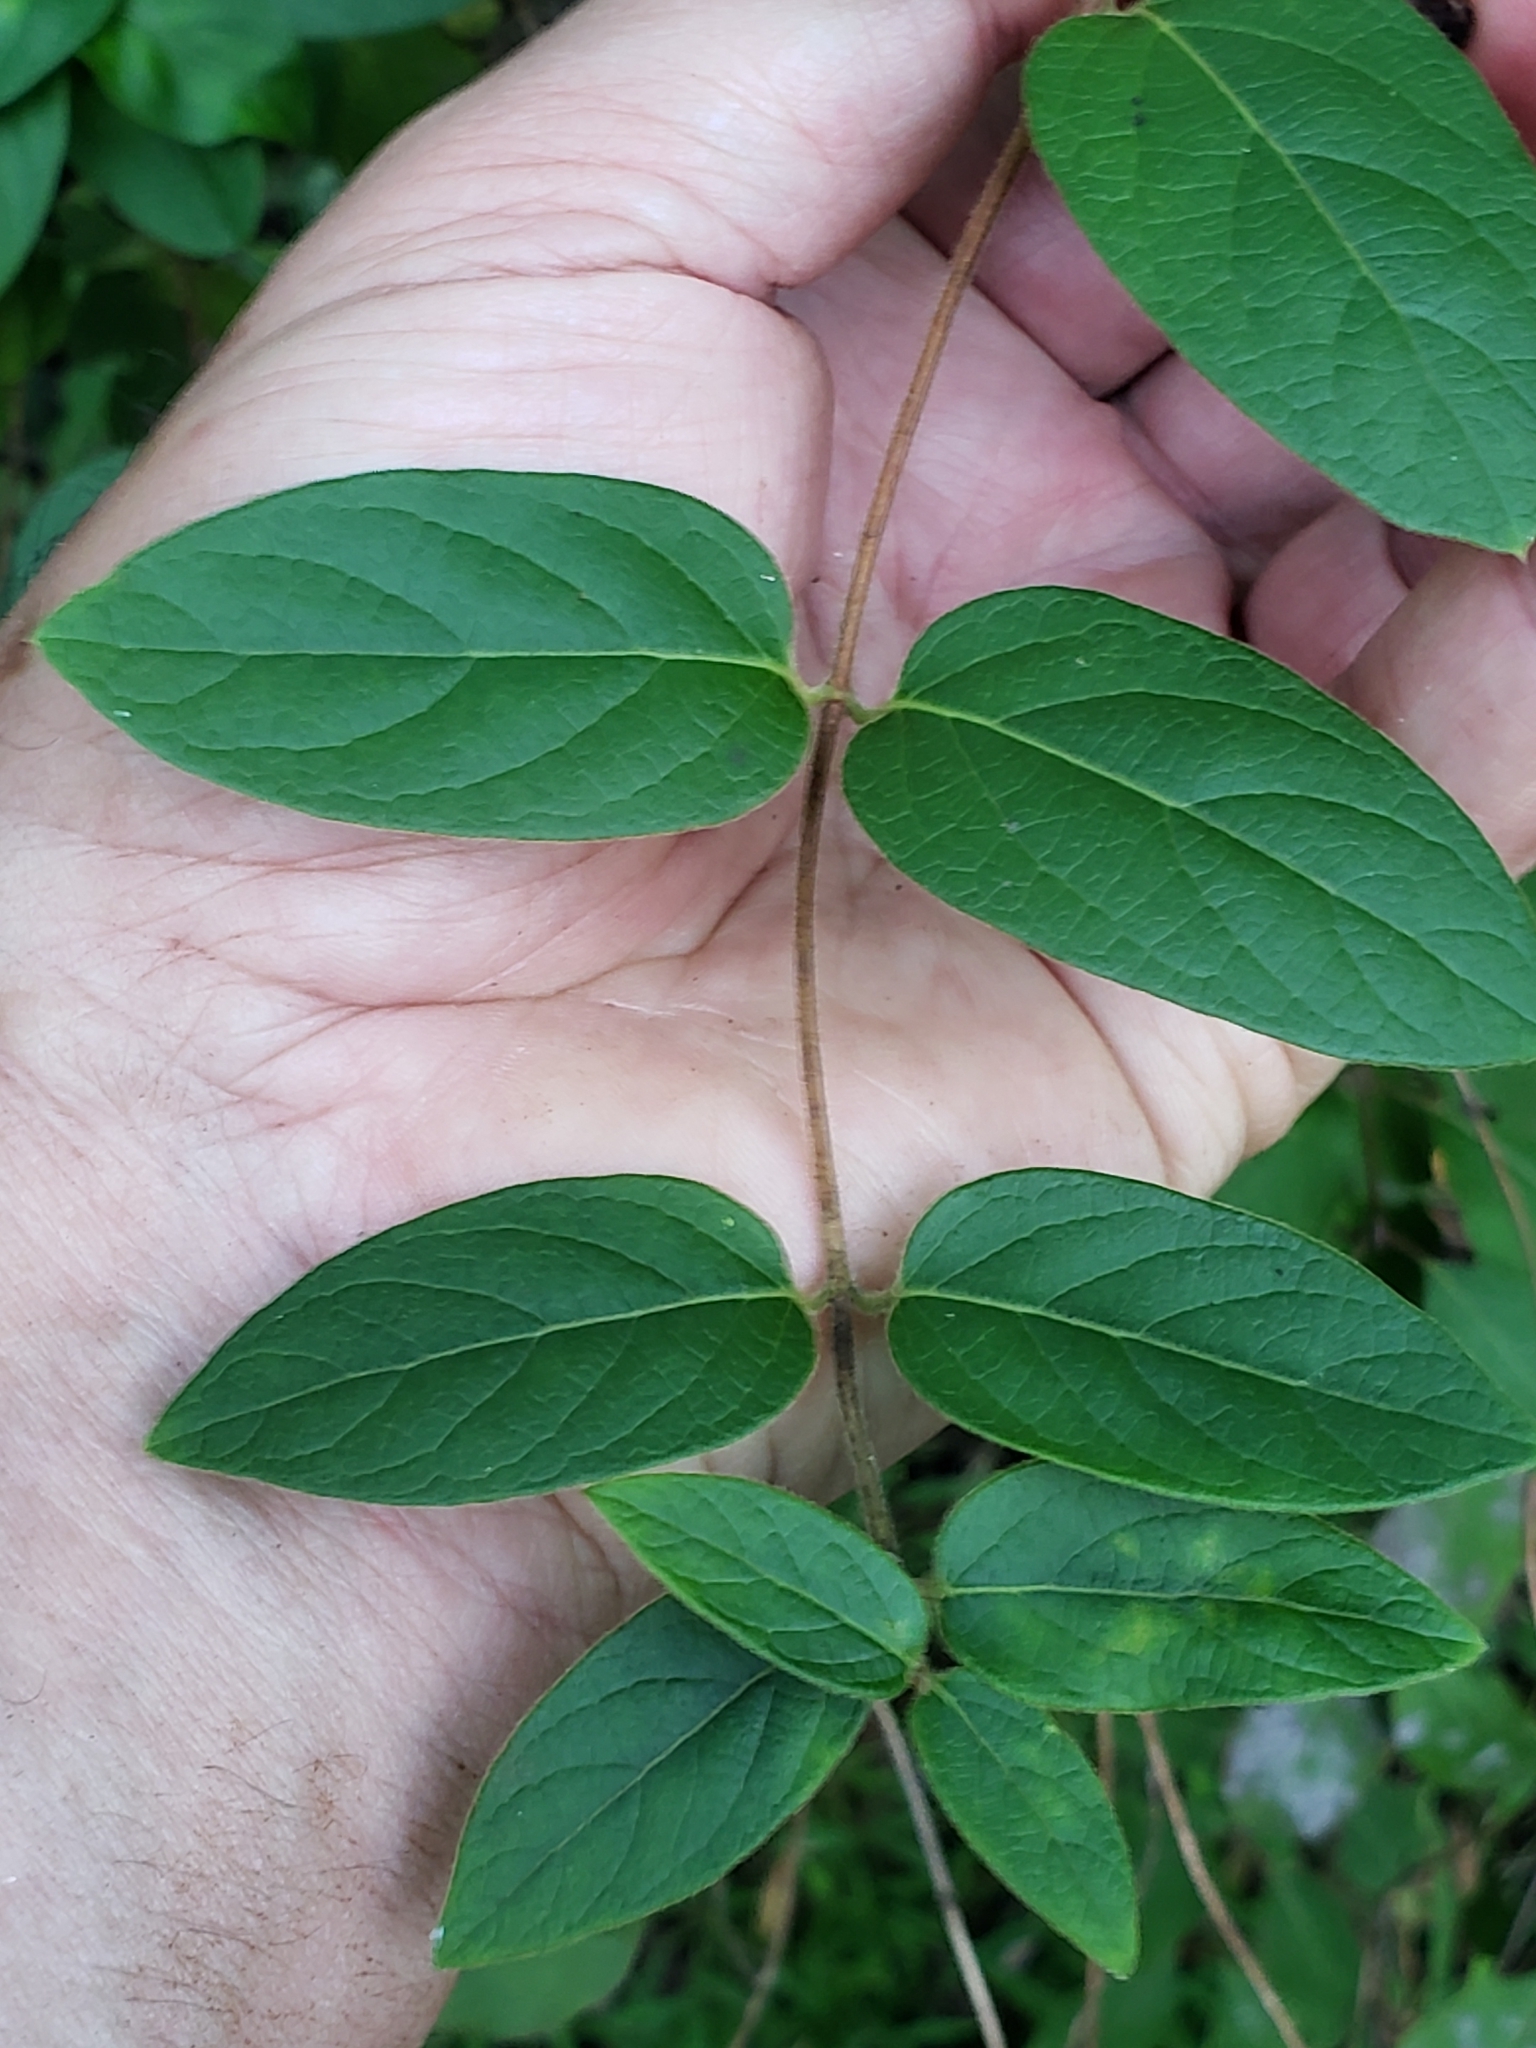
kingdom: Plantae
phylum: Tracheophyta
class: Magnoliopsida
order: Dipsacales
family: Caprifoliaceae
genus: Lonicera
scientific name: Lonicera japonica
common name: Japanese honeysuckle
